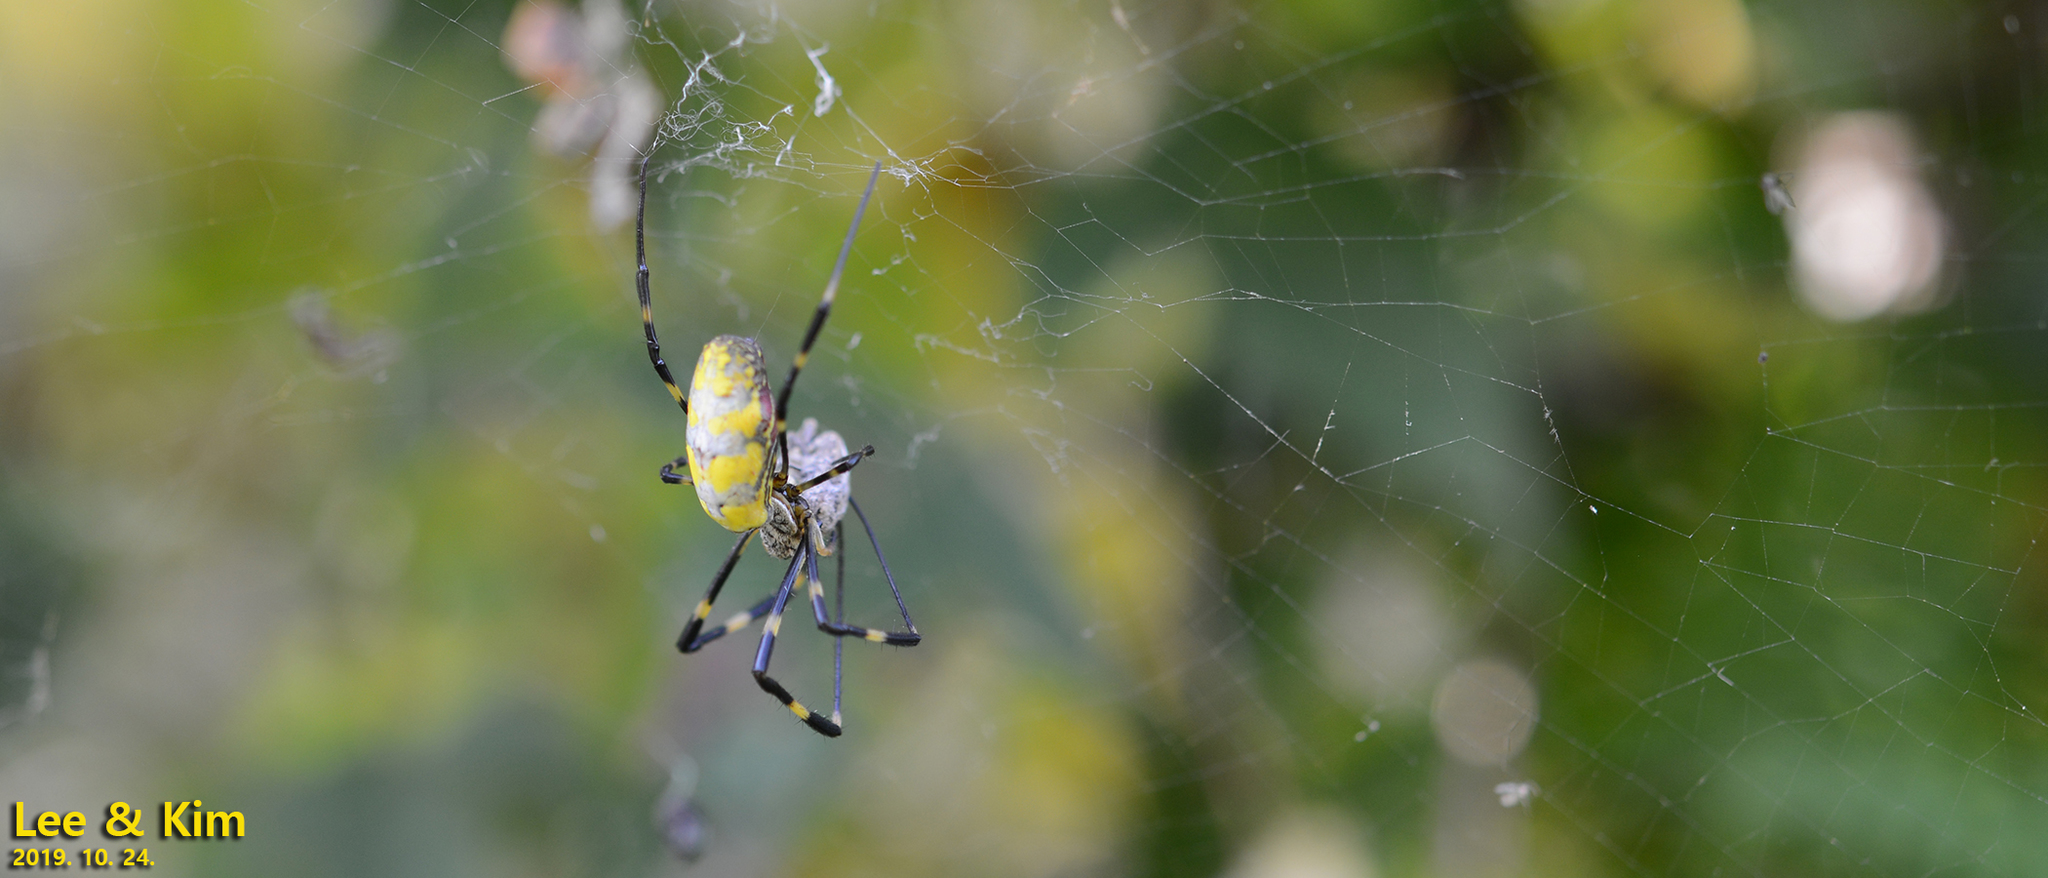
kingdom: Animalia
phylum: Arthropoda
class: Arachnida
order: Araneae
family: Araneidae
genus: Trichonephila
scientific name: Trichonephila clavata
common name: Jorō spider
